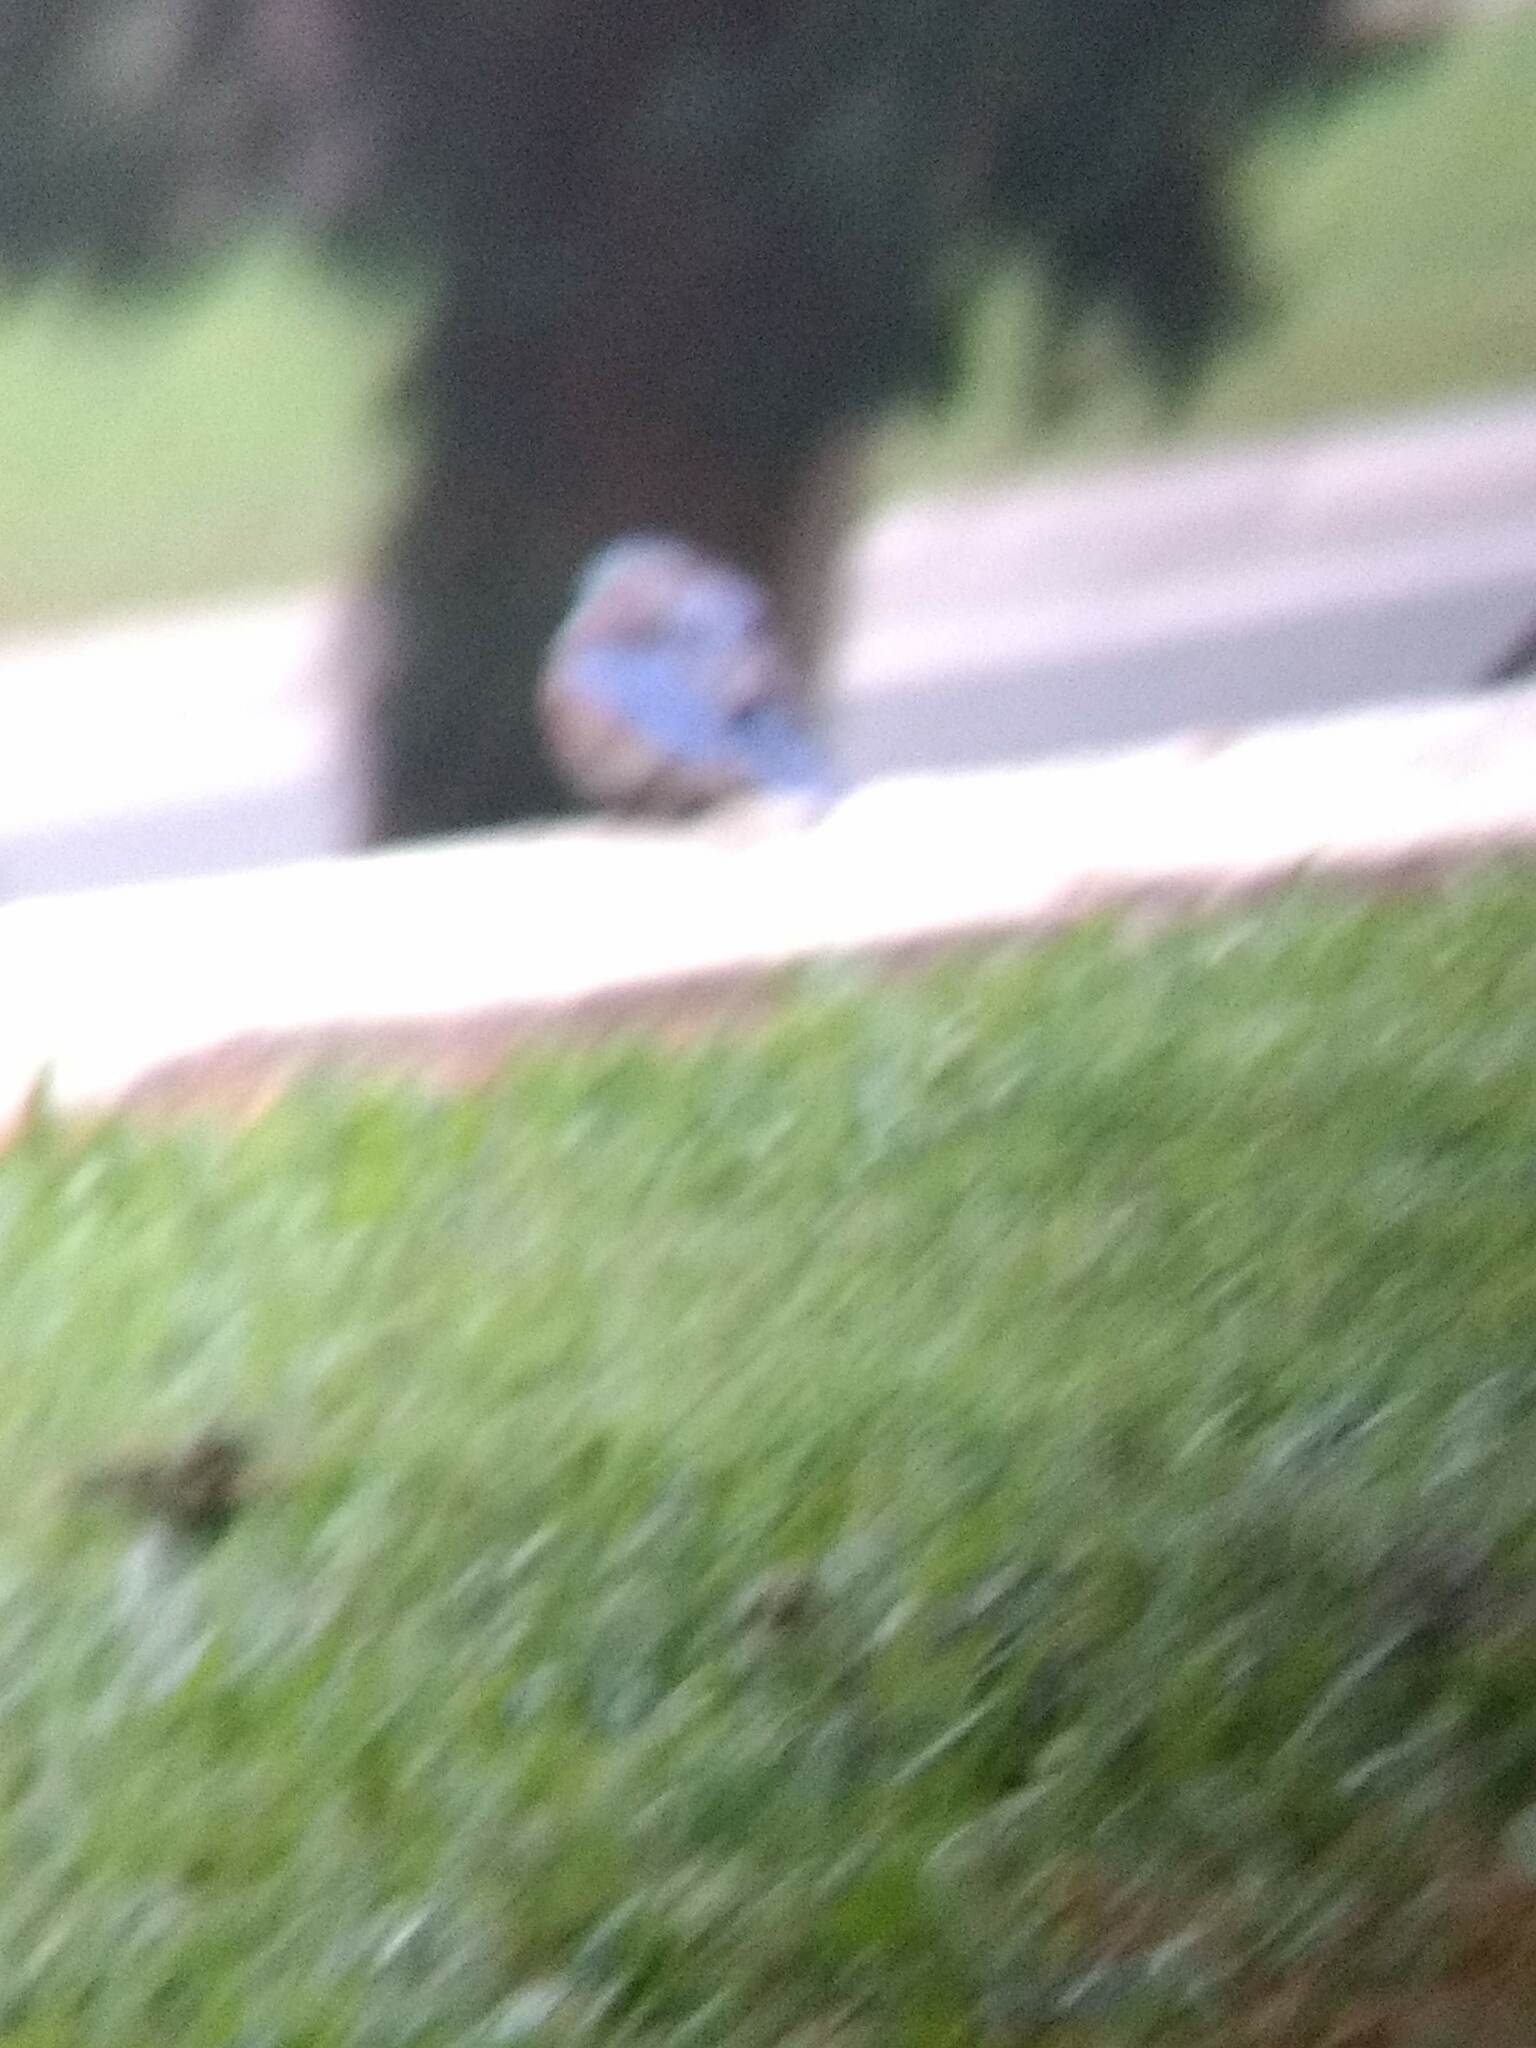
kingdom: Animalia
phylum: Chordata
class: Aves
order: Passeriformes
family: Turdidae
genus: Sialia
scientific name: Sialia mexicana
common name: Western bluebird
